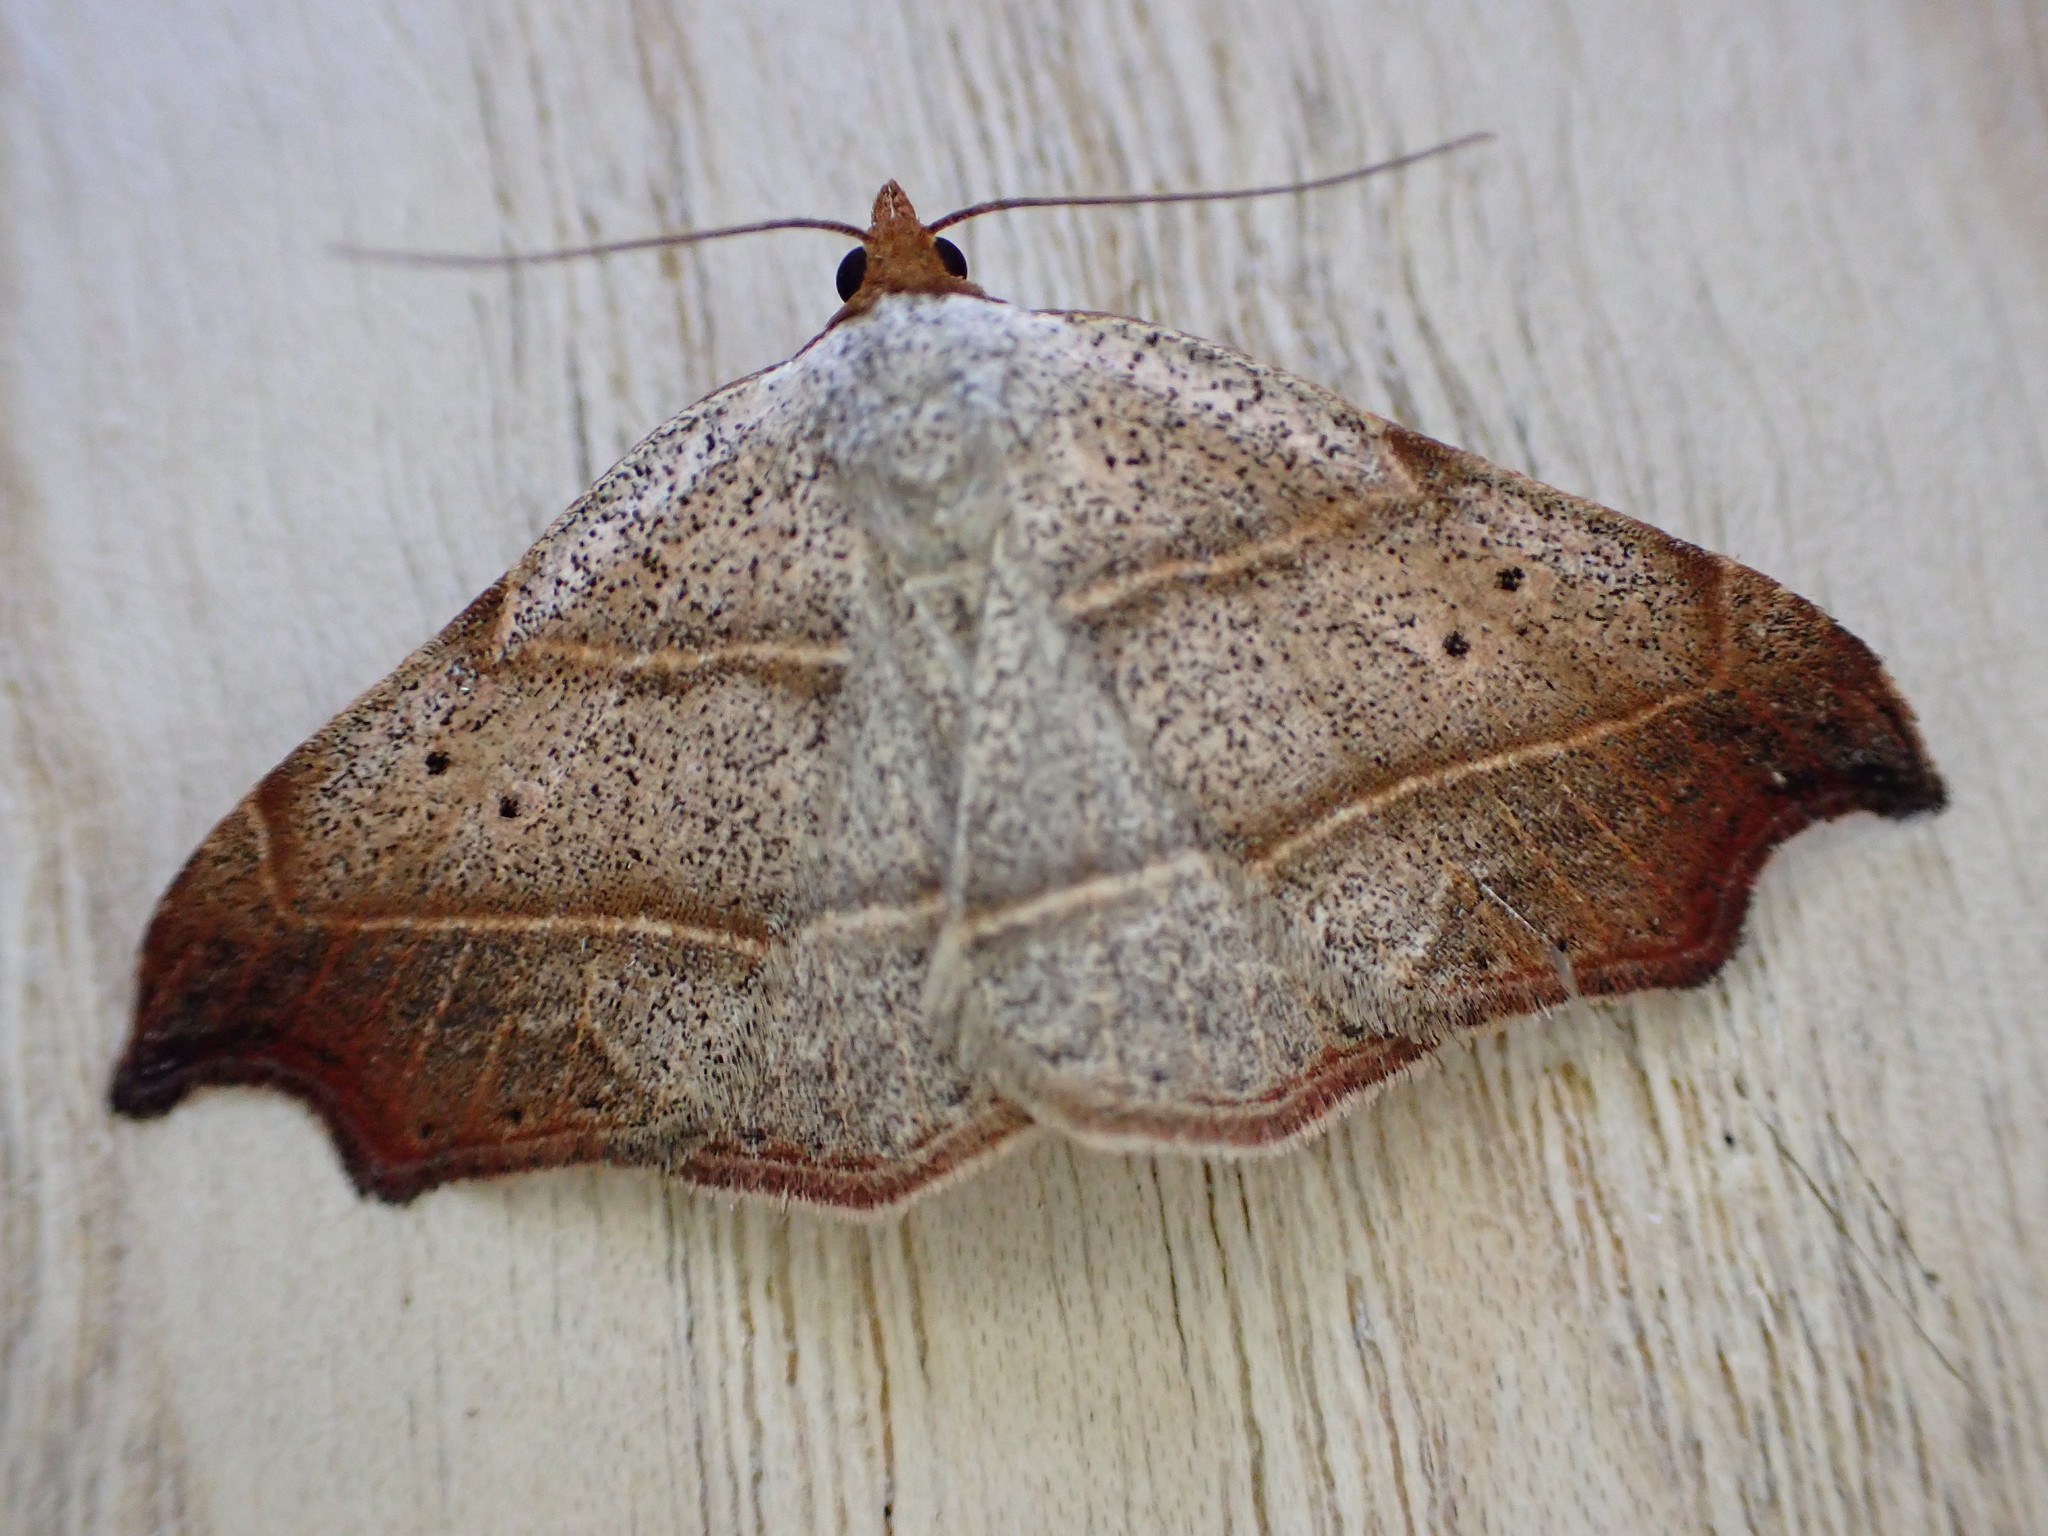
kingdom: Animalia
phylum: Arthropoda
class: Insecta
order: Lepidoptera
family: Erebidae
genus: Laspeyria
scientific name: Laspeyria flexula
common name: Beautiful hook-tip
